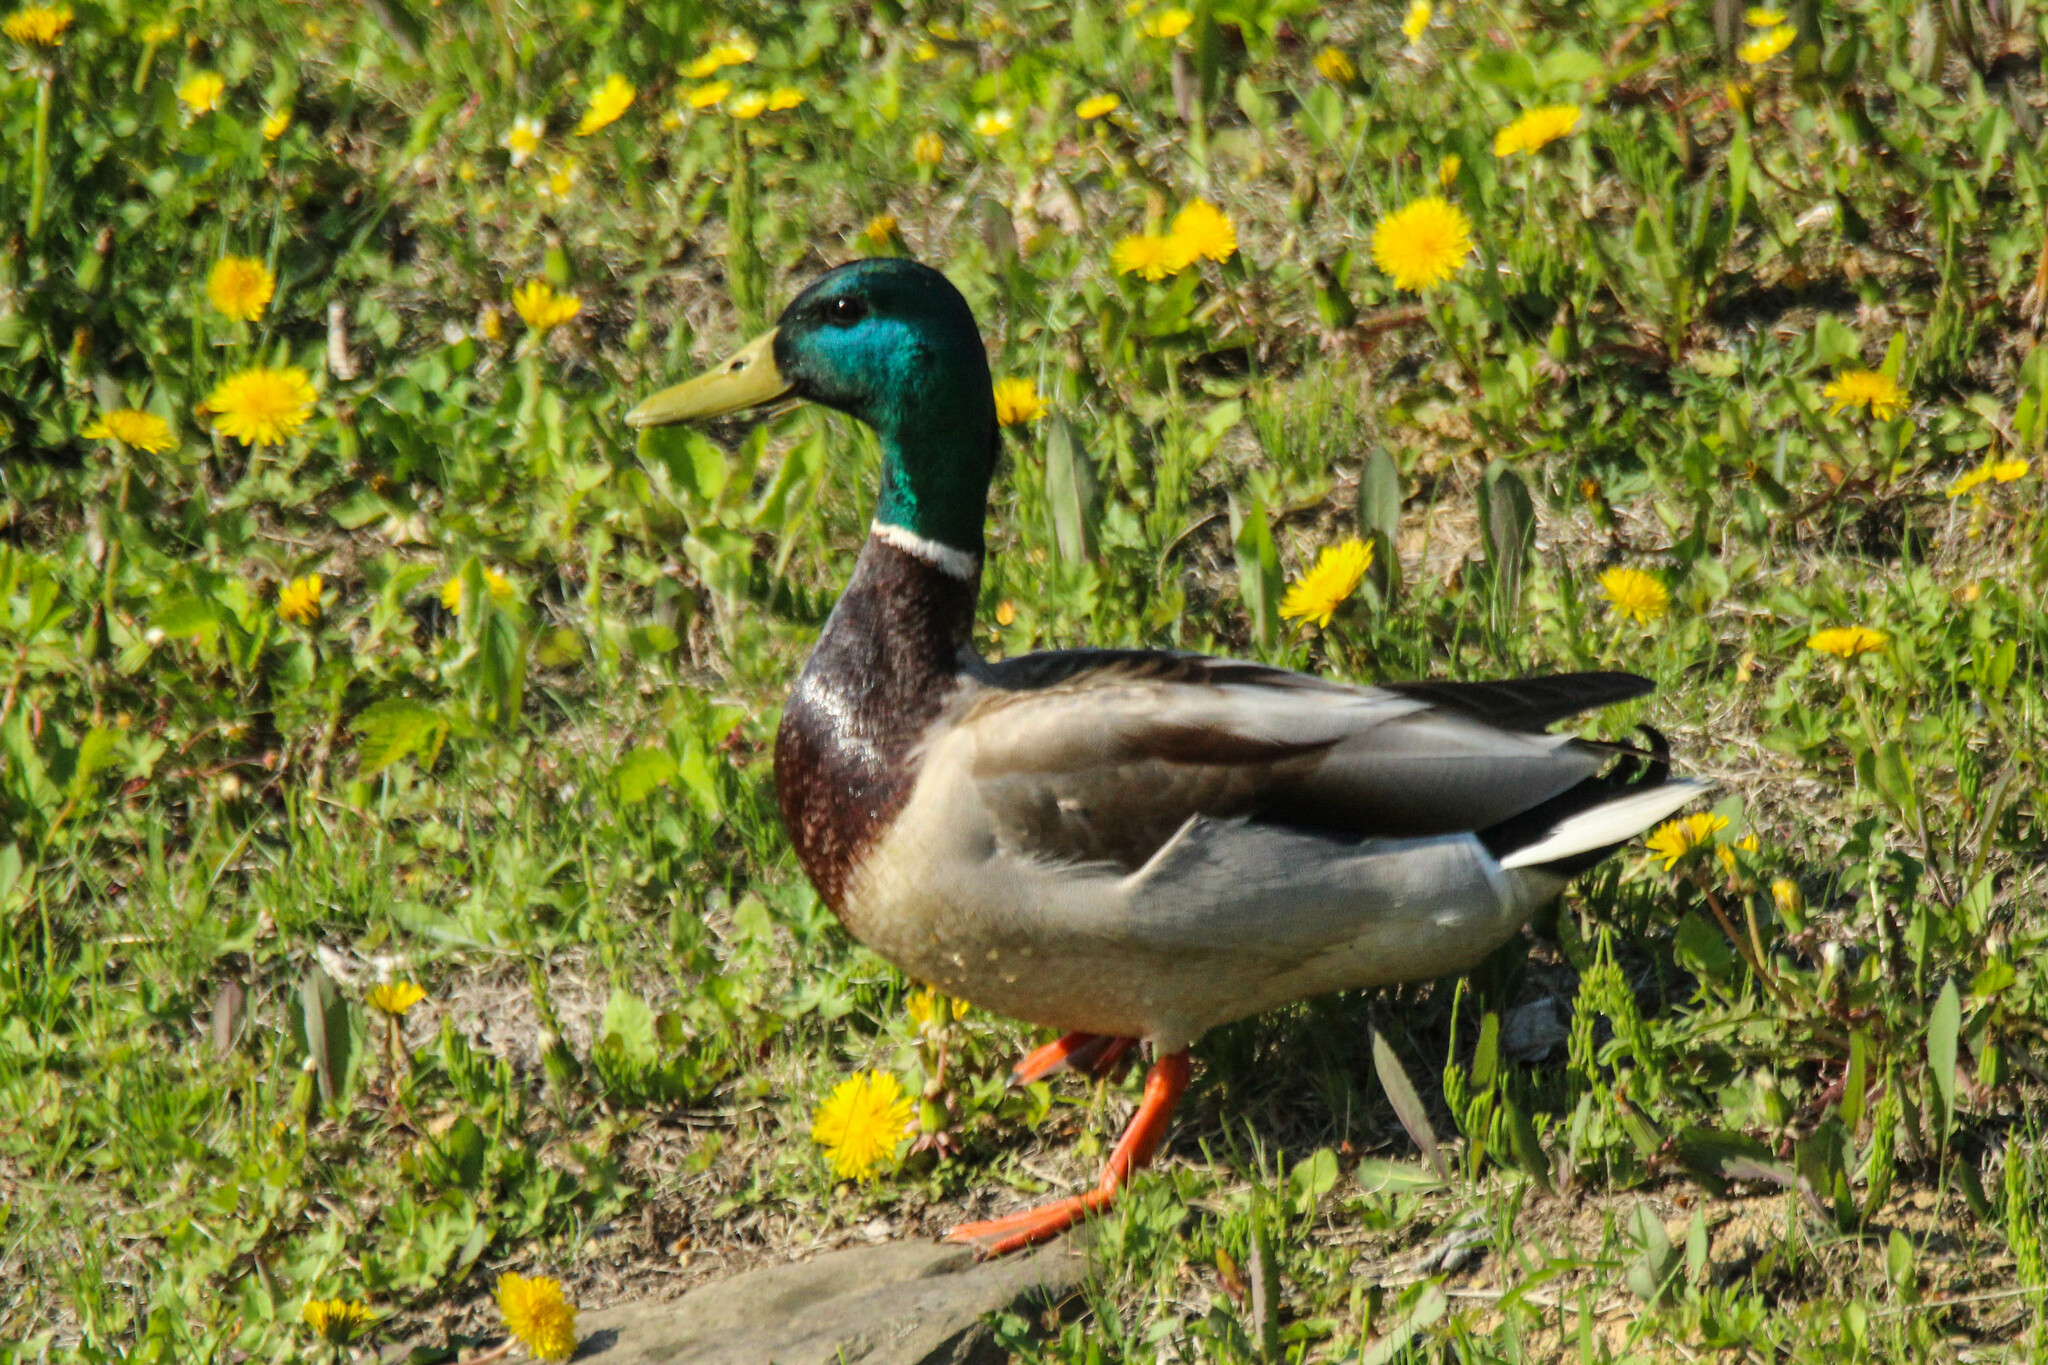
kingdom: Animalia
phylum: Chordata
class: Aves
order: Anseriformes
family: Anatidae
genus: Anas
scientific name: Anas platyrhynchos
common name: Mallard
